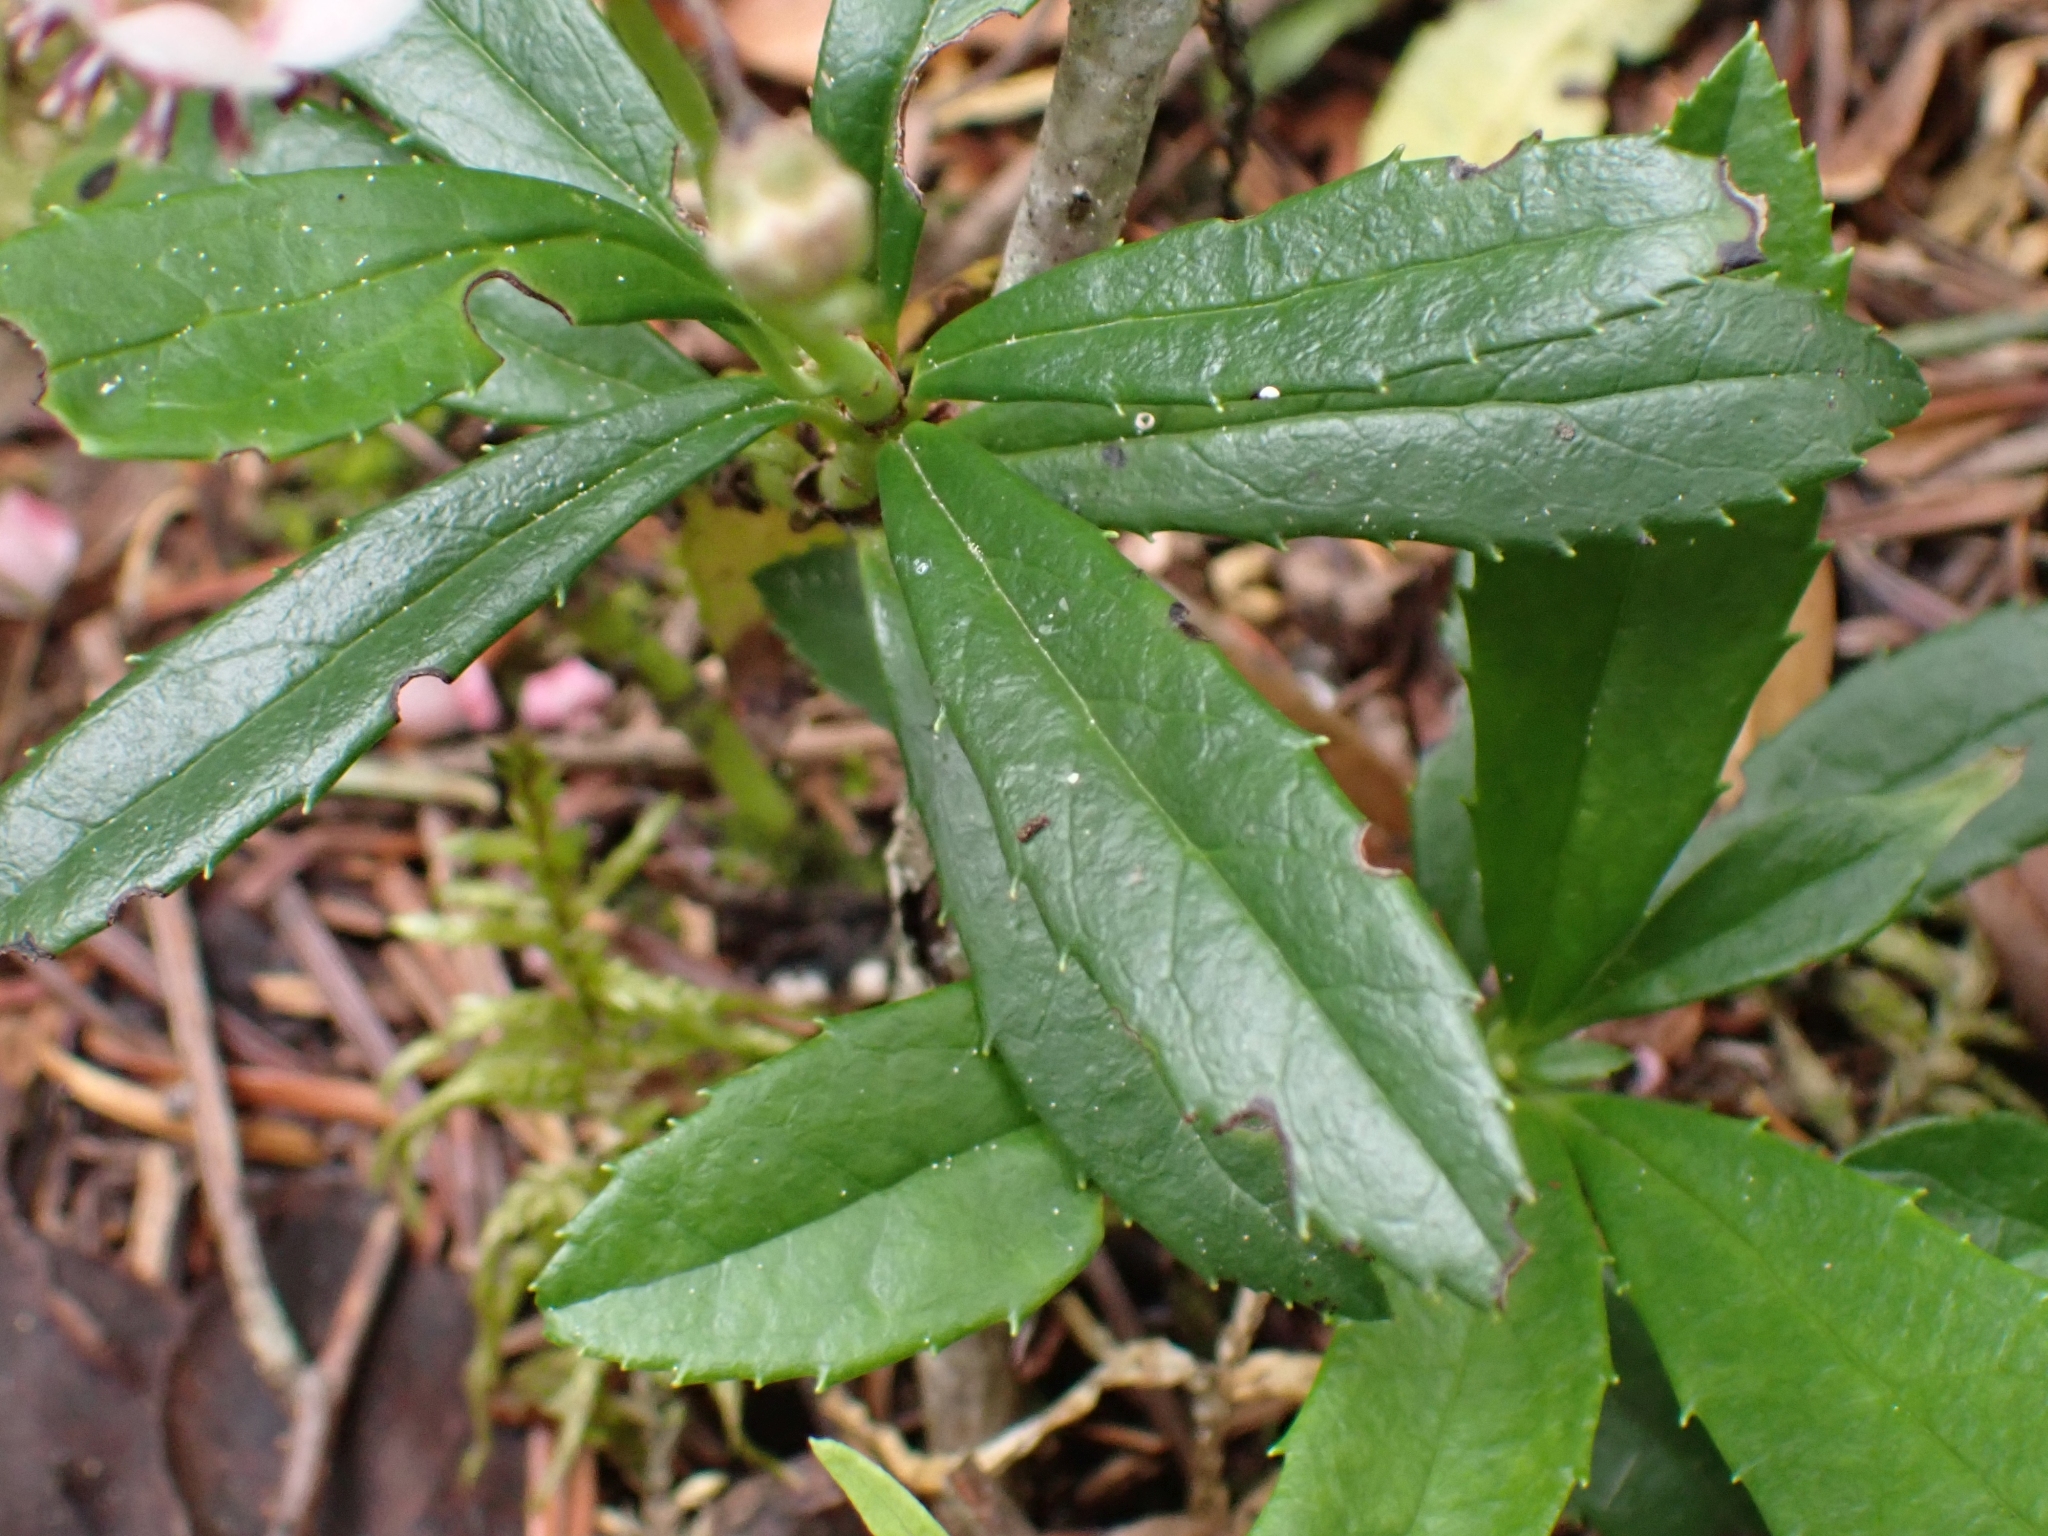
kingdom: Plantae
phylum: Tracheophyta
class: Magnoliopsida
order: Ericales
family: Ericaceae
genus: Chimaphila
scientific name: Chimaphila umbellata
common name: Pipsissewa
